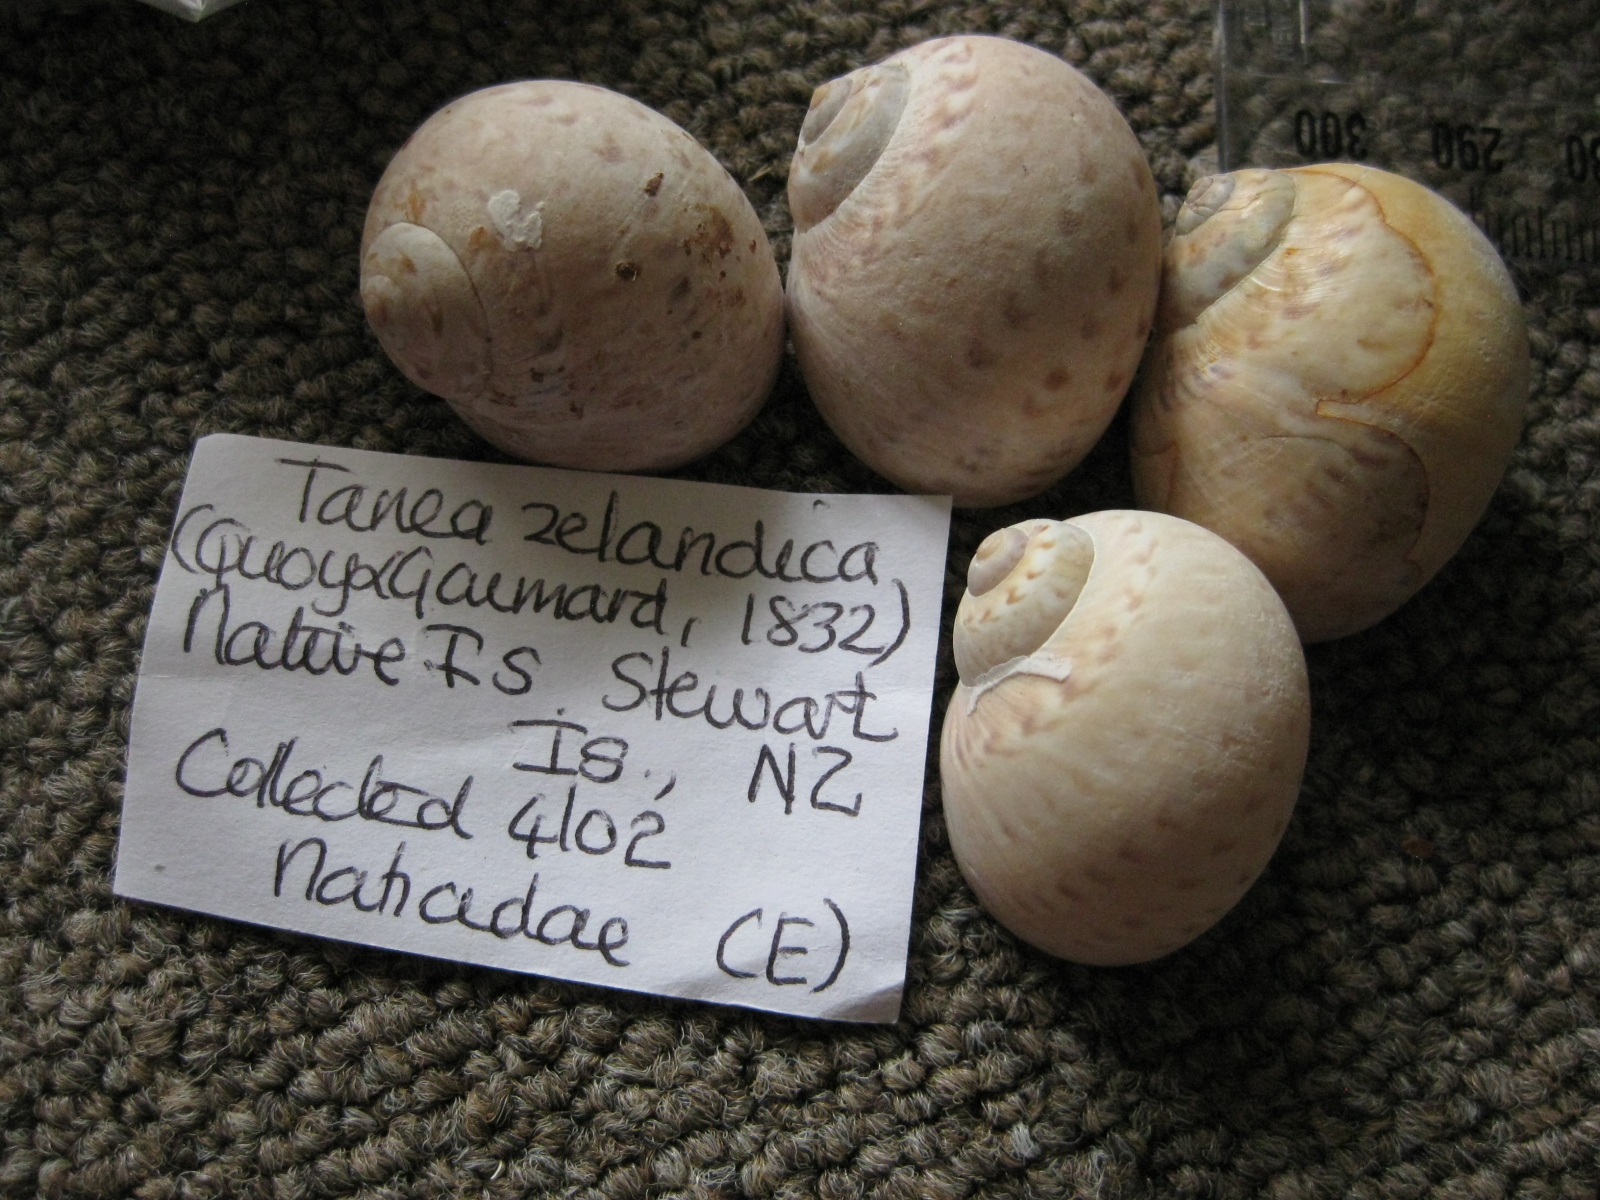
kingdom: Animalia
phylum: Mollusca
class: Gastropoda
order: Littorinimorpha
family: Naticidae
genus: Tanea
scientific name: Tanea zelandica
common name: New zealand moonsnail
